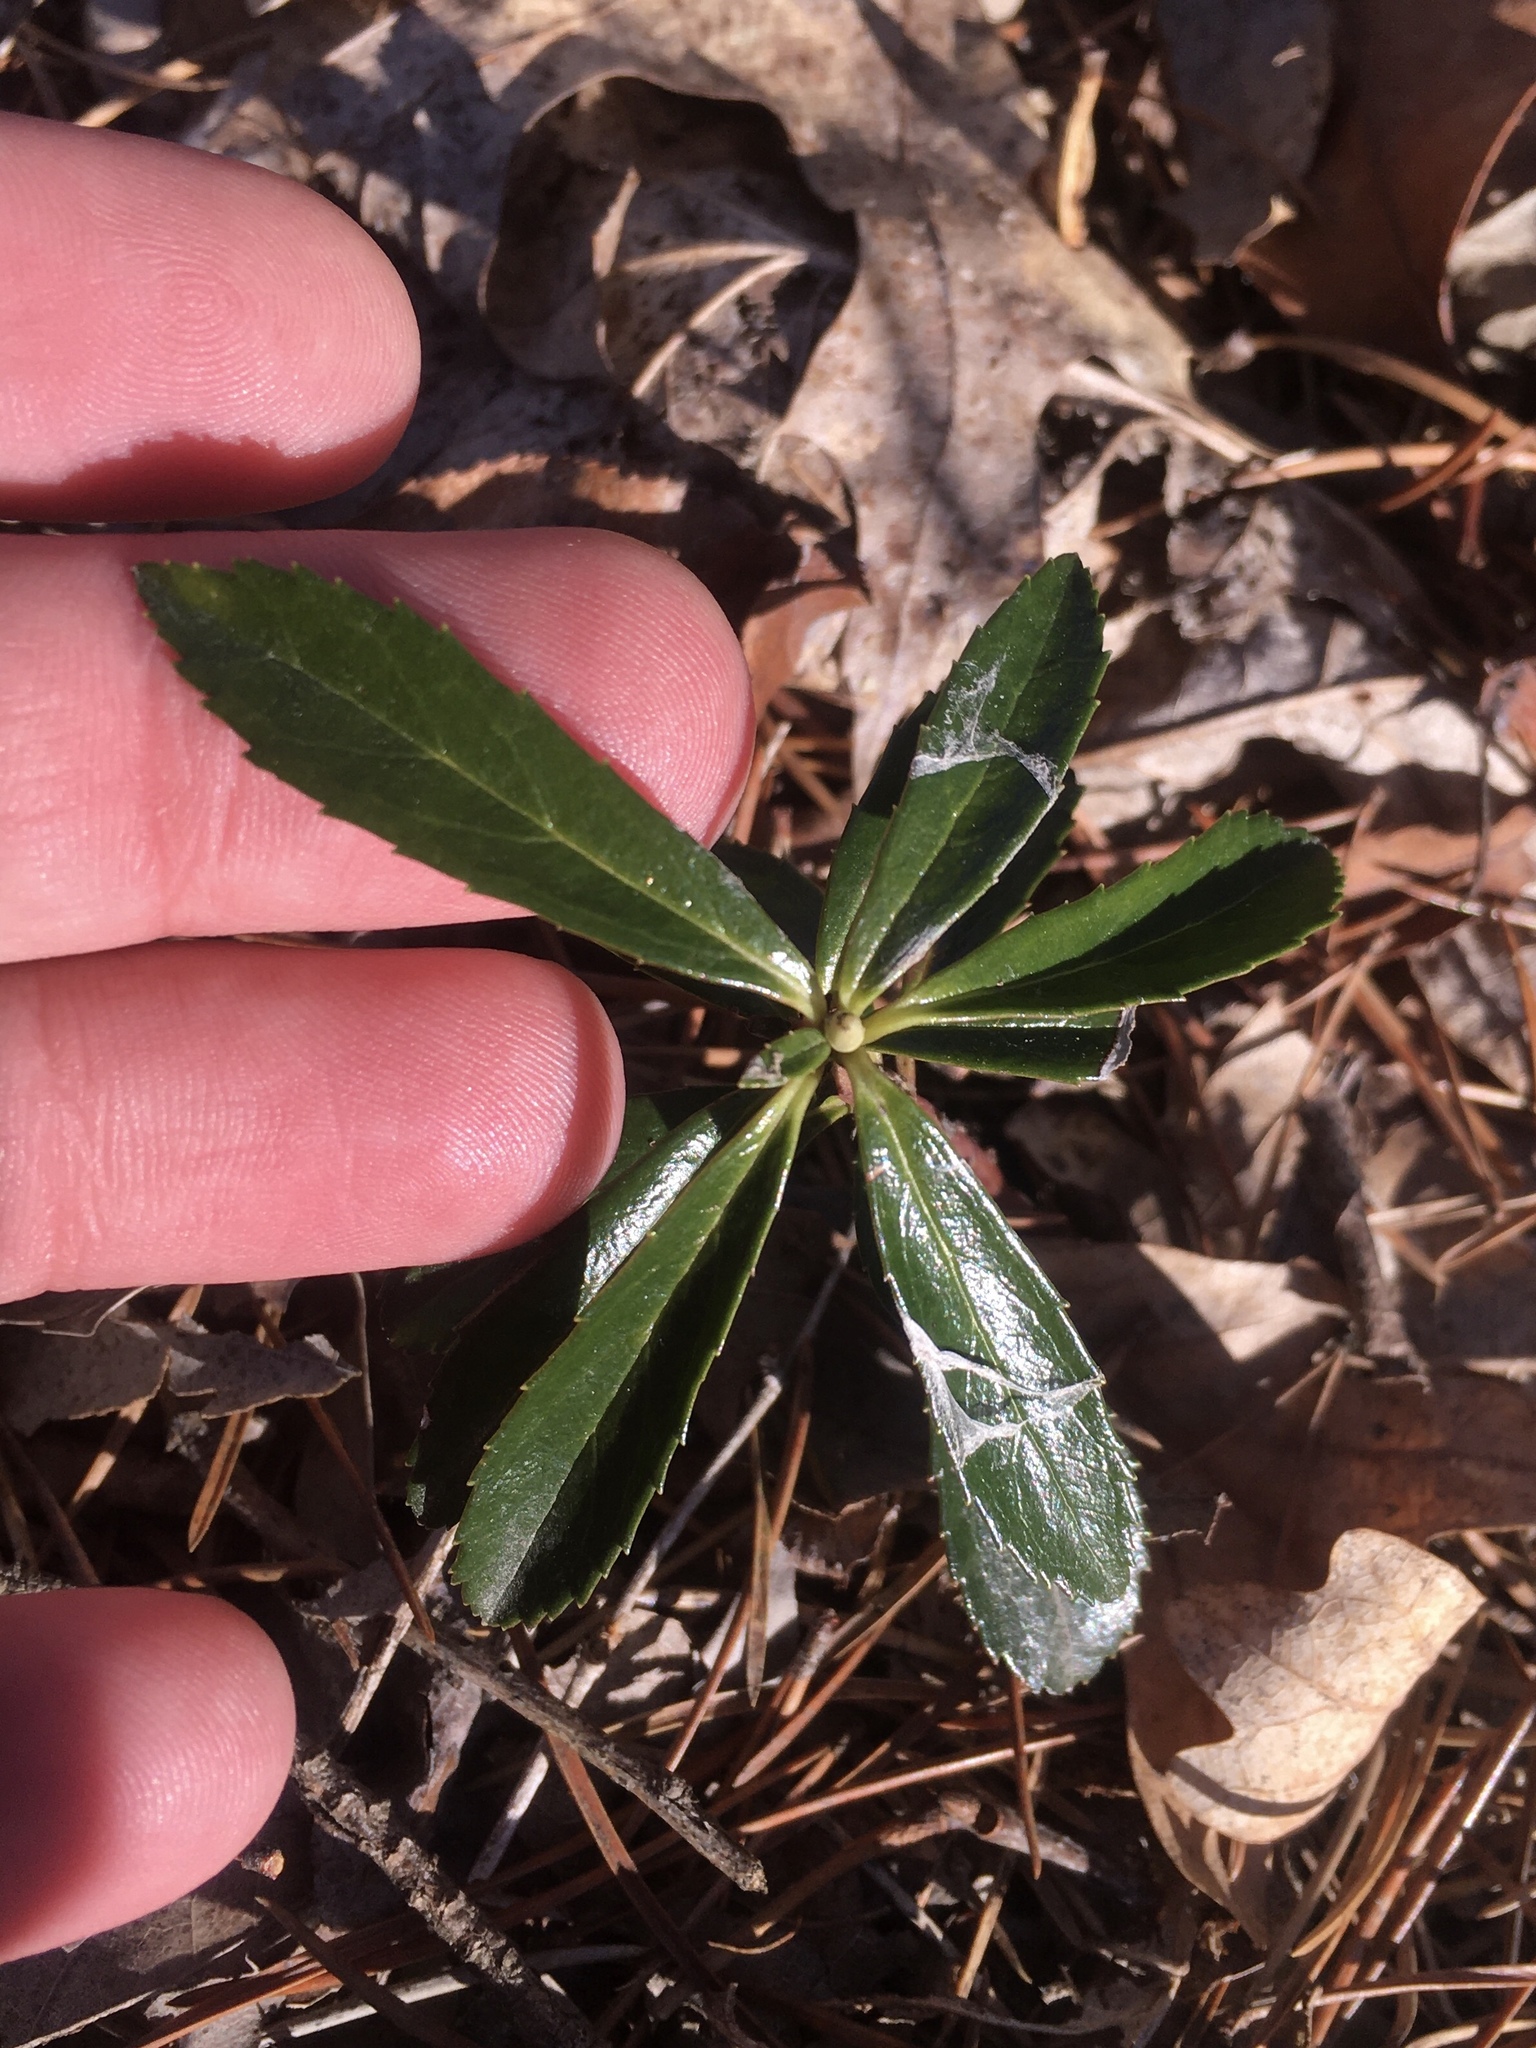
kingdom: Plantae
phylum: Tracheophyta
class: Magnoliopsida
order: Ericales
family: Ericaceae
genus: Chimaphila
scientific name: Chimaphila umbellata
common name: Pipsissewa
